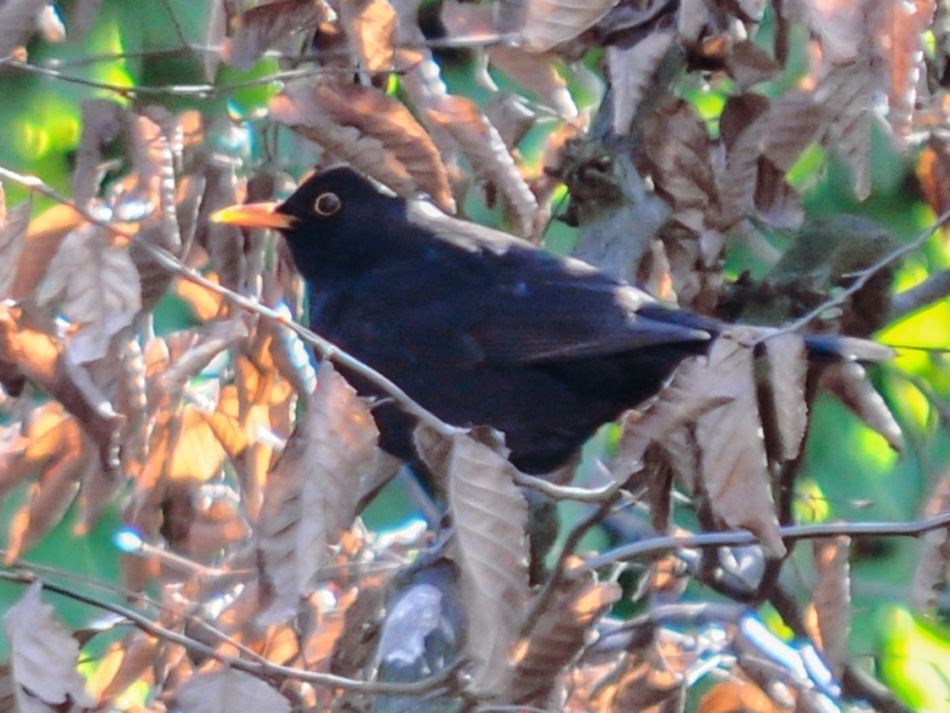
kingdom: Animalia
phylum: Chordata
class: Aves
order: Passeriformes
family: Turdidae
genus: Turdus
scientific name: Turdus merula
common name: Common blackbird
